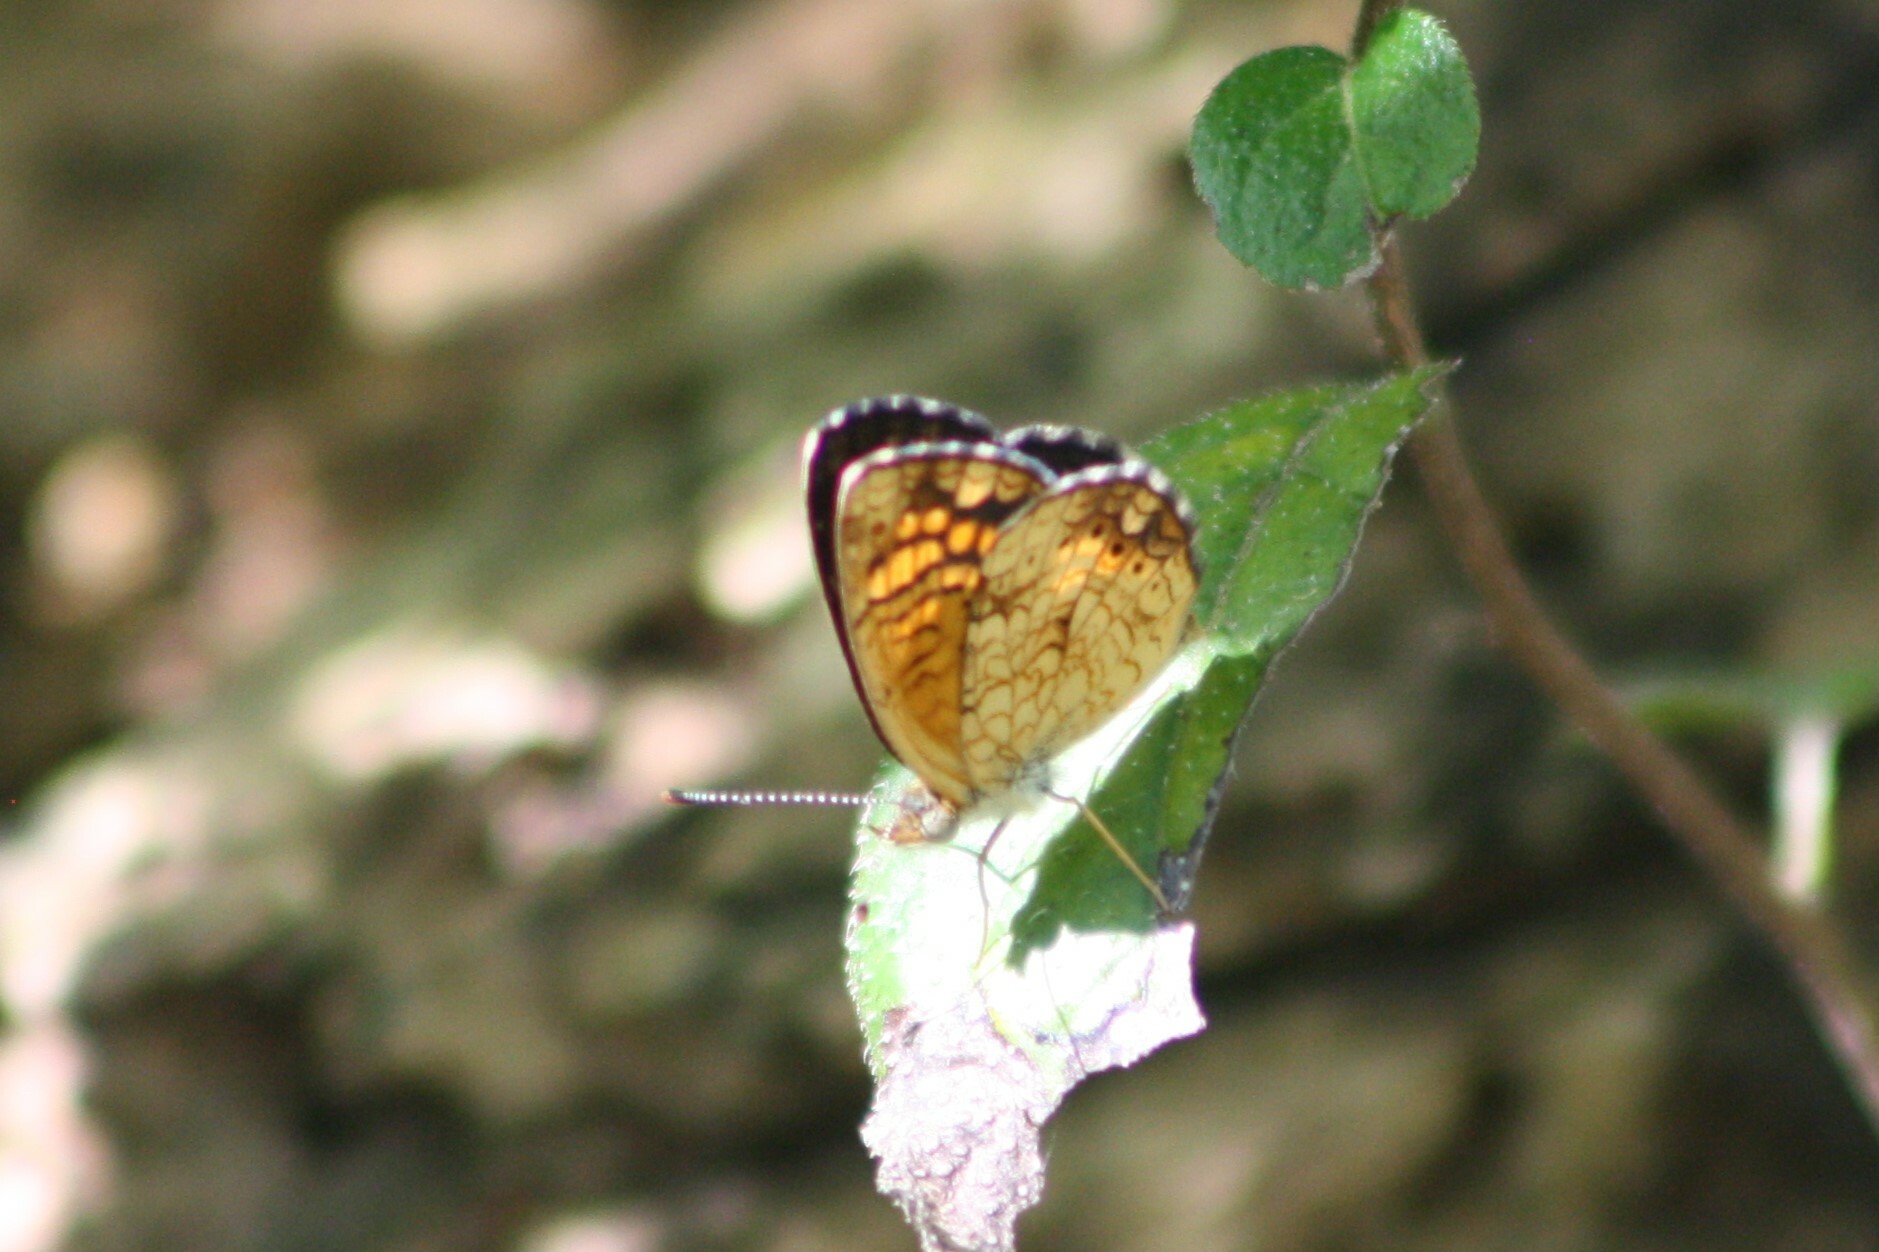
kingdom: Animalia
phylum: Arthropoda
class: Insecta
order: Lepidoptera
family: Nymphalidae
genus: Phyciodes
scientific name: Phyciodes vesta
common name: Vesta crescent
